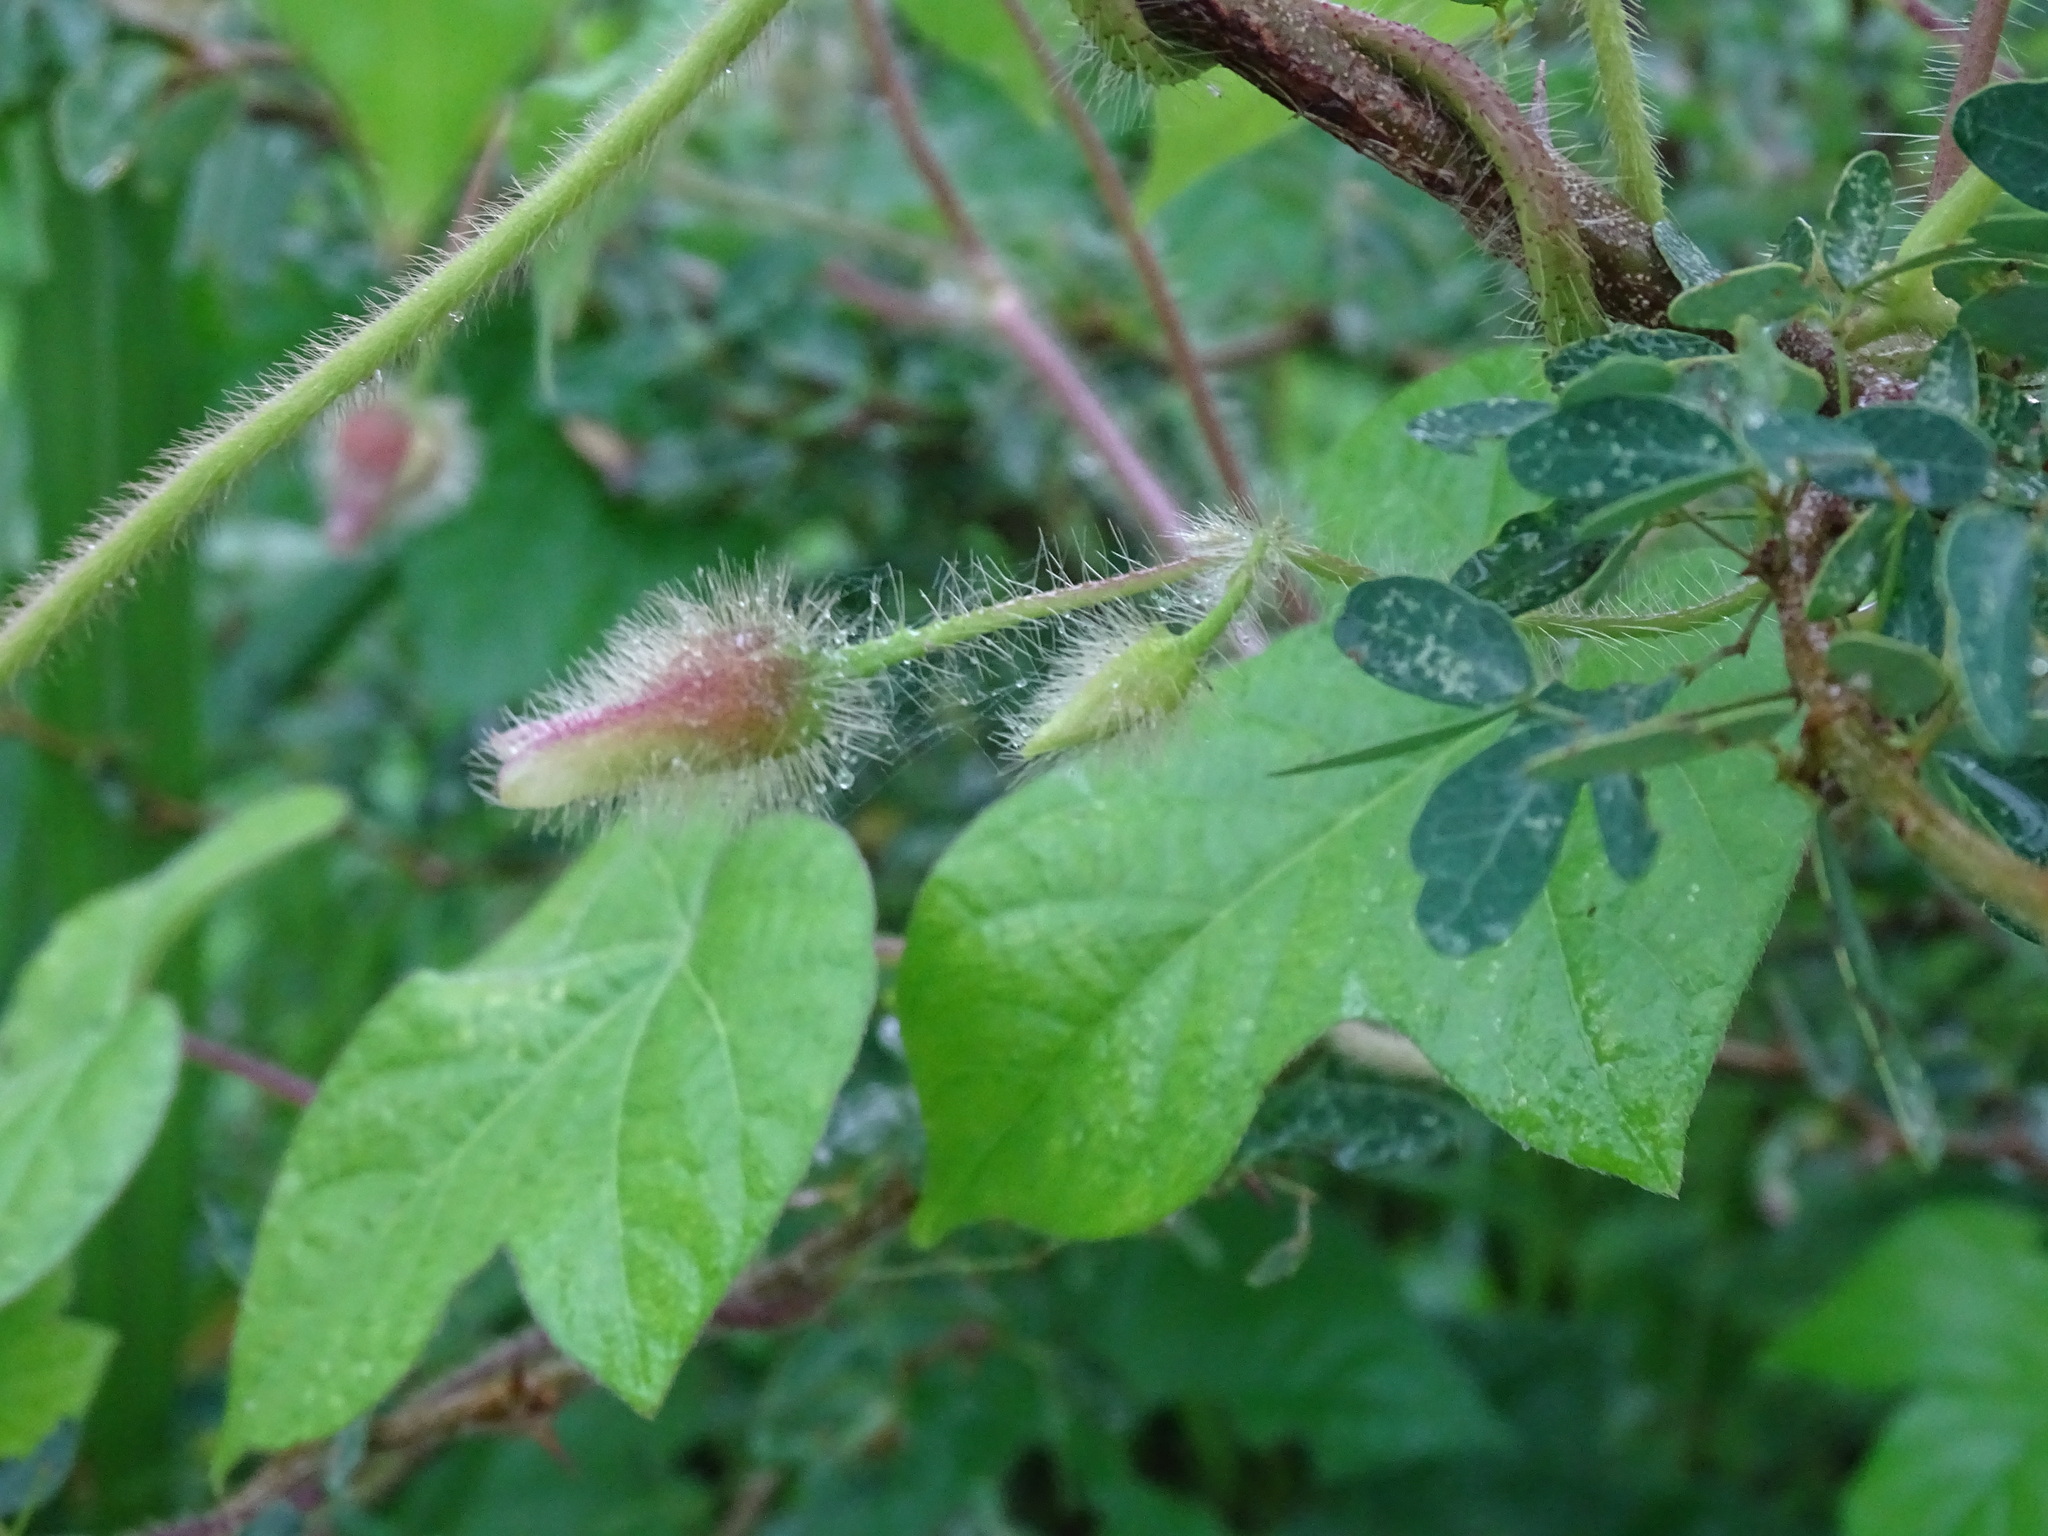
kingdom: Plantae
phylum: Tracheophyta
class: Magnoliopsida
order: Solanales
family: Convolvulaceae
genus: Distimake
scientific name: Distimake aegyptius
